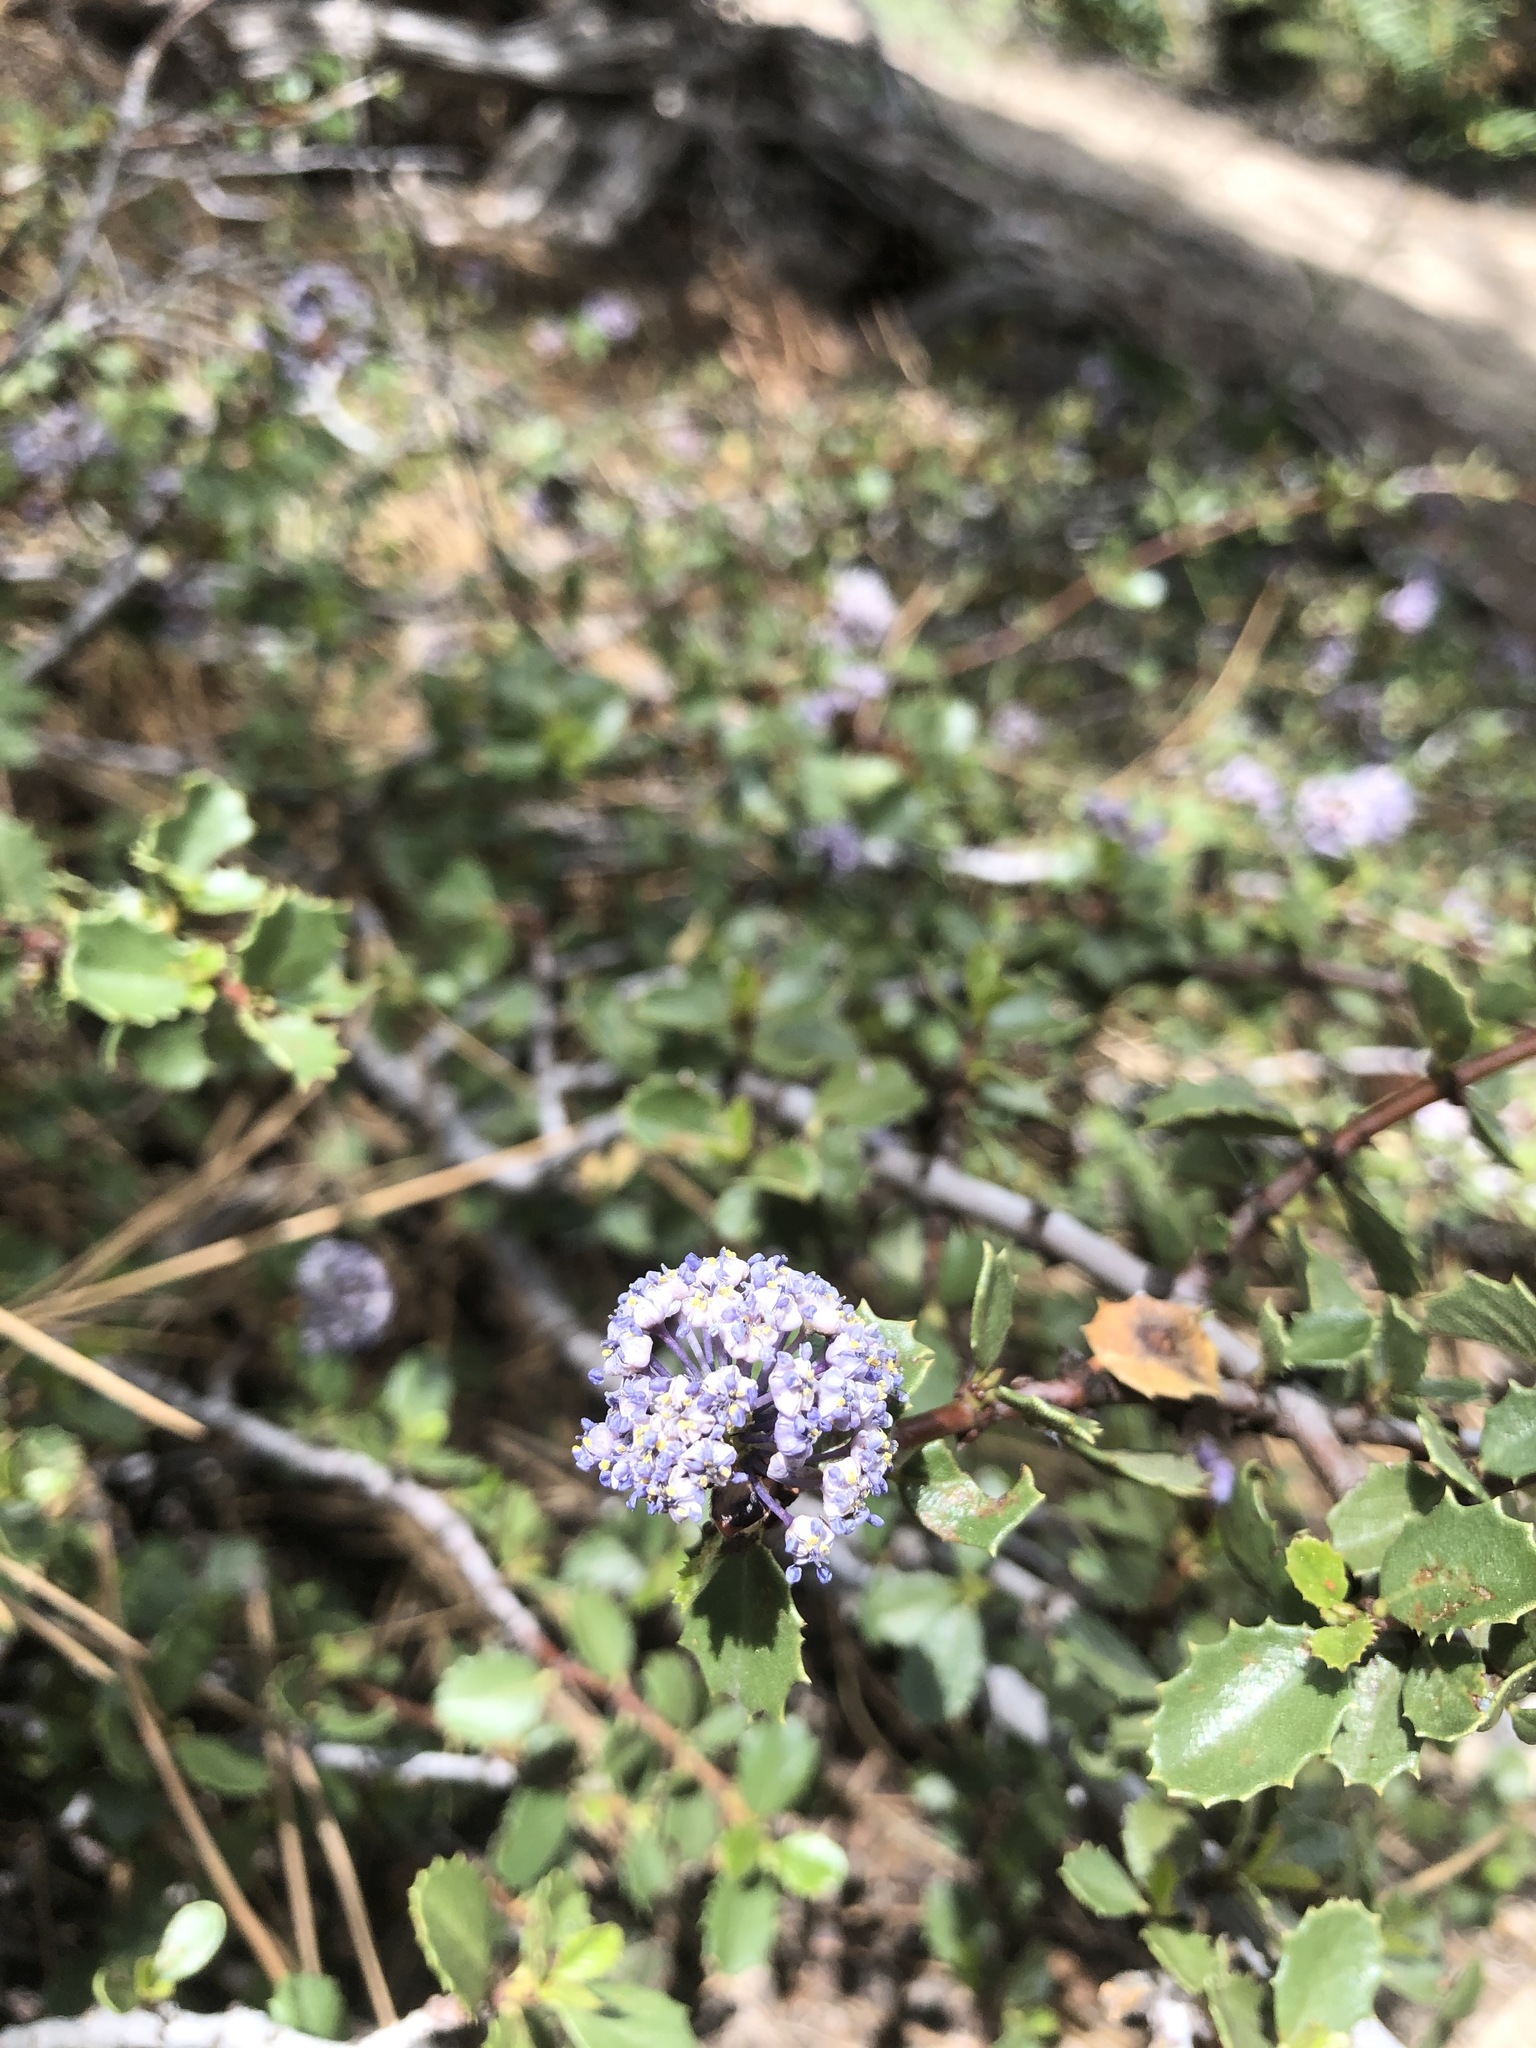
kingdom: Plantae
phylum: Tracheophyta
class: Magnoliopsida
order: Rosales
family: Rhamnaceae
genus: Ceanothus
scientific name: Ceanothus pinetorum
